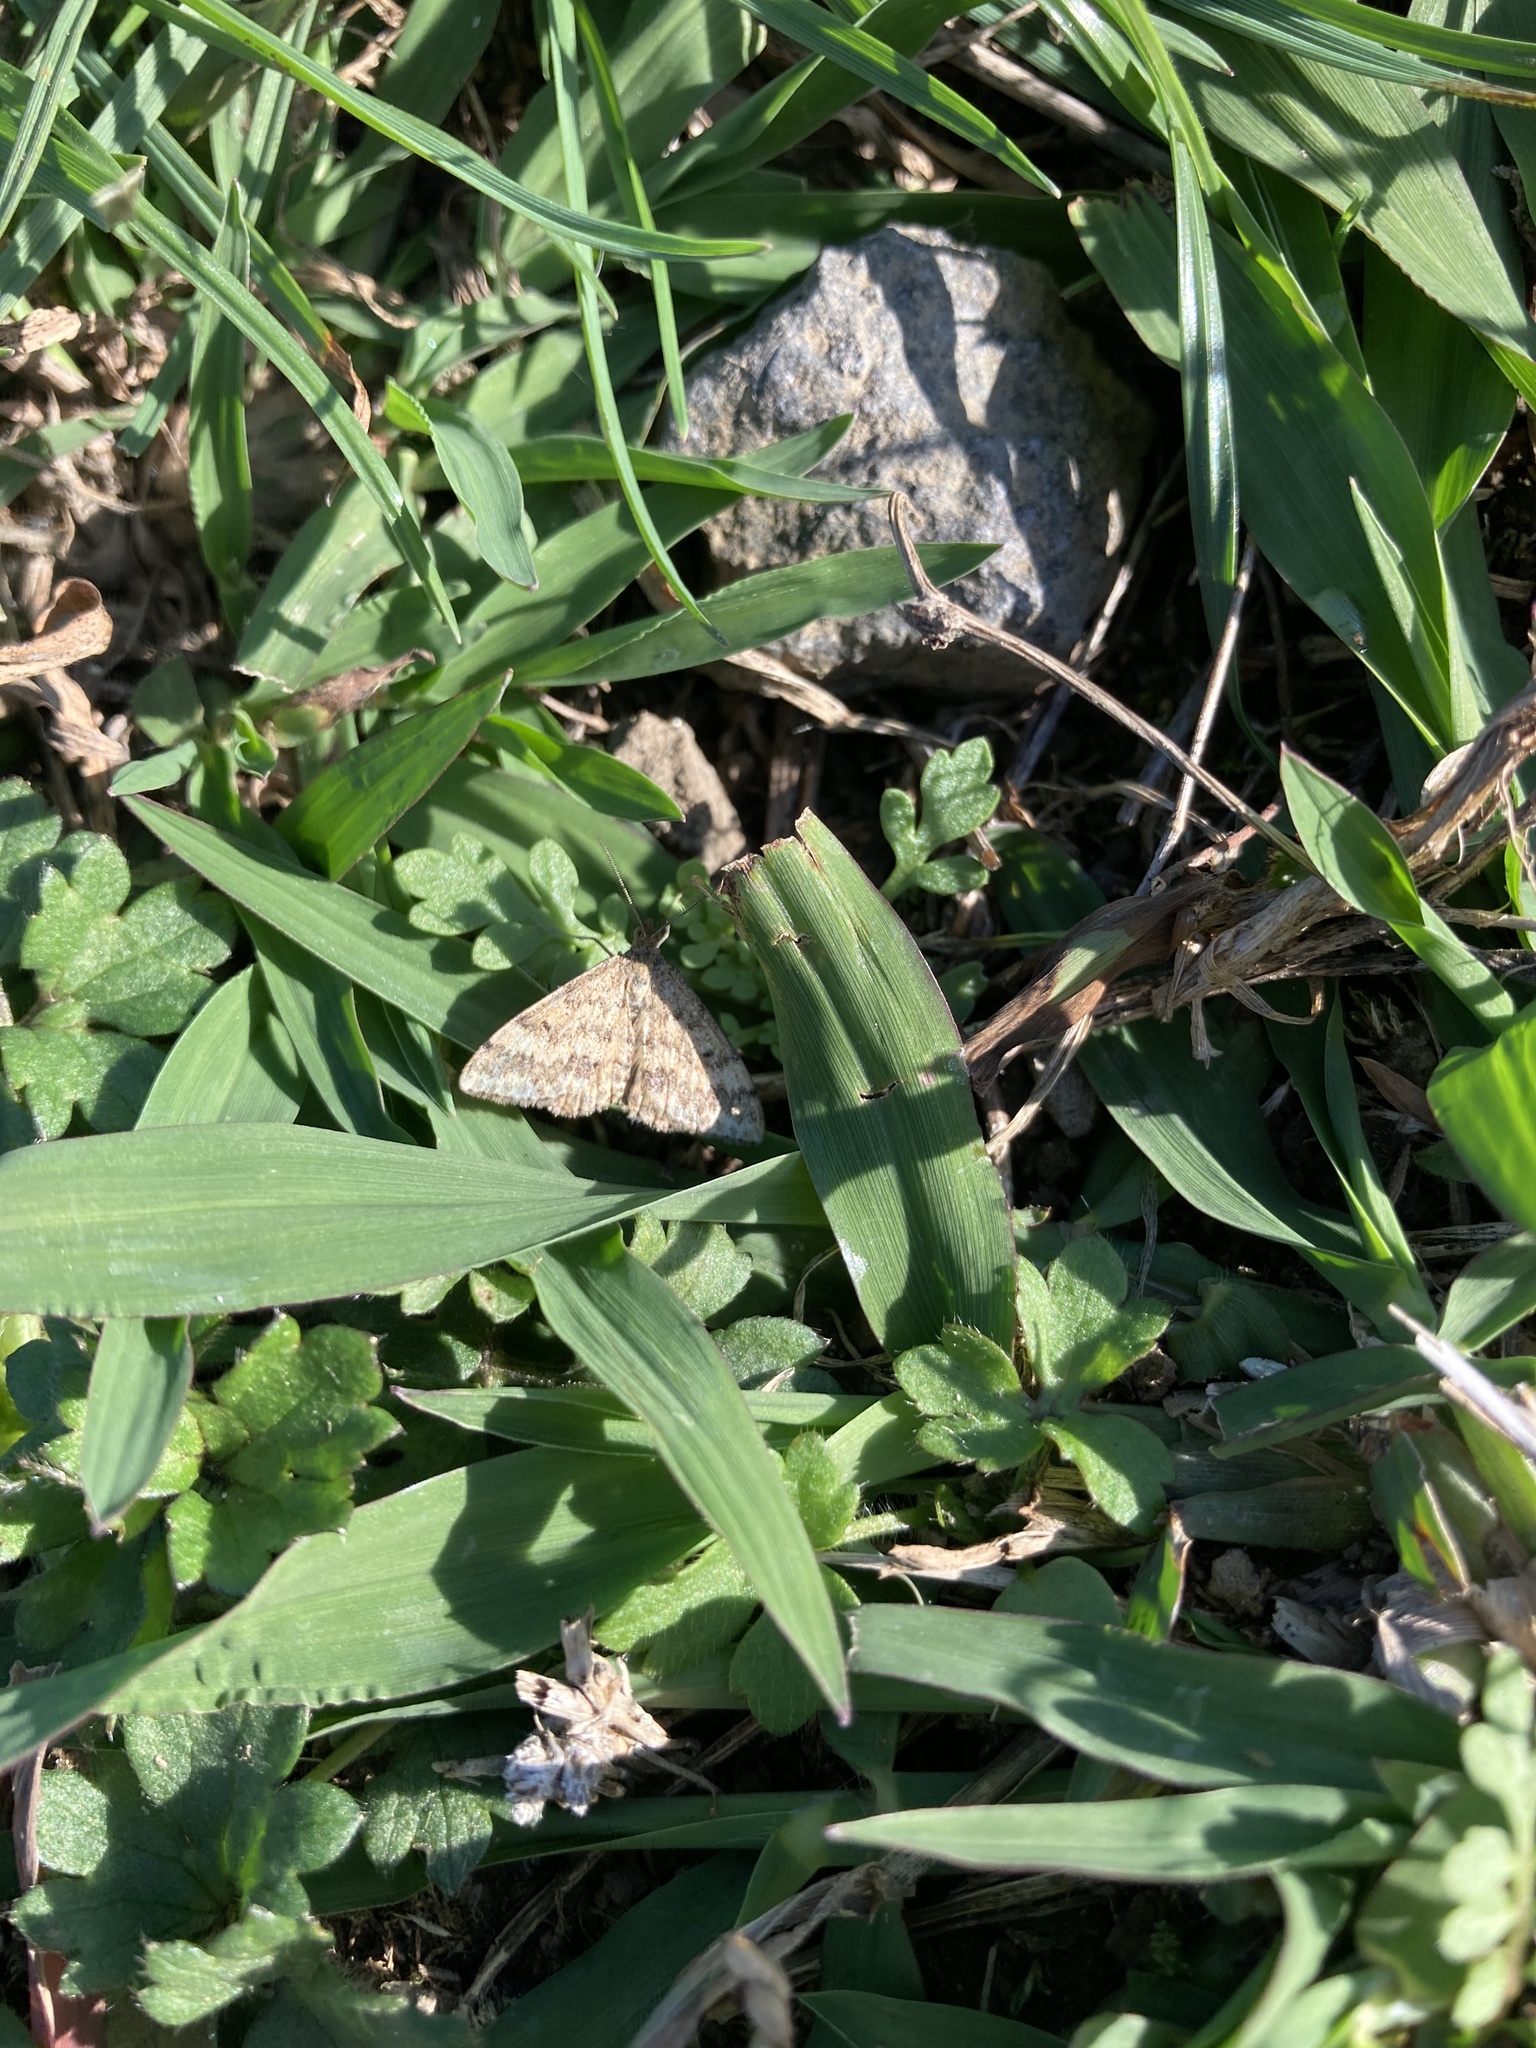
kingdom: Animalia
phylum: Arthropoda
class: Insecta
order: Lepidoptera
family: Geometridae
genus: Scopula
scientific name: Scopula rubraria
